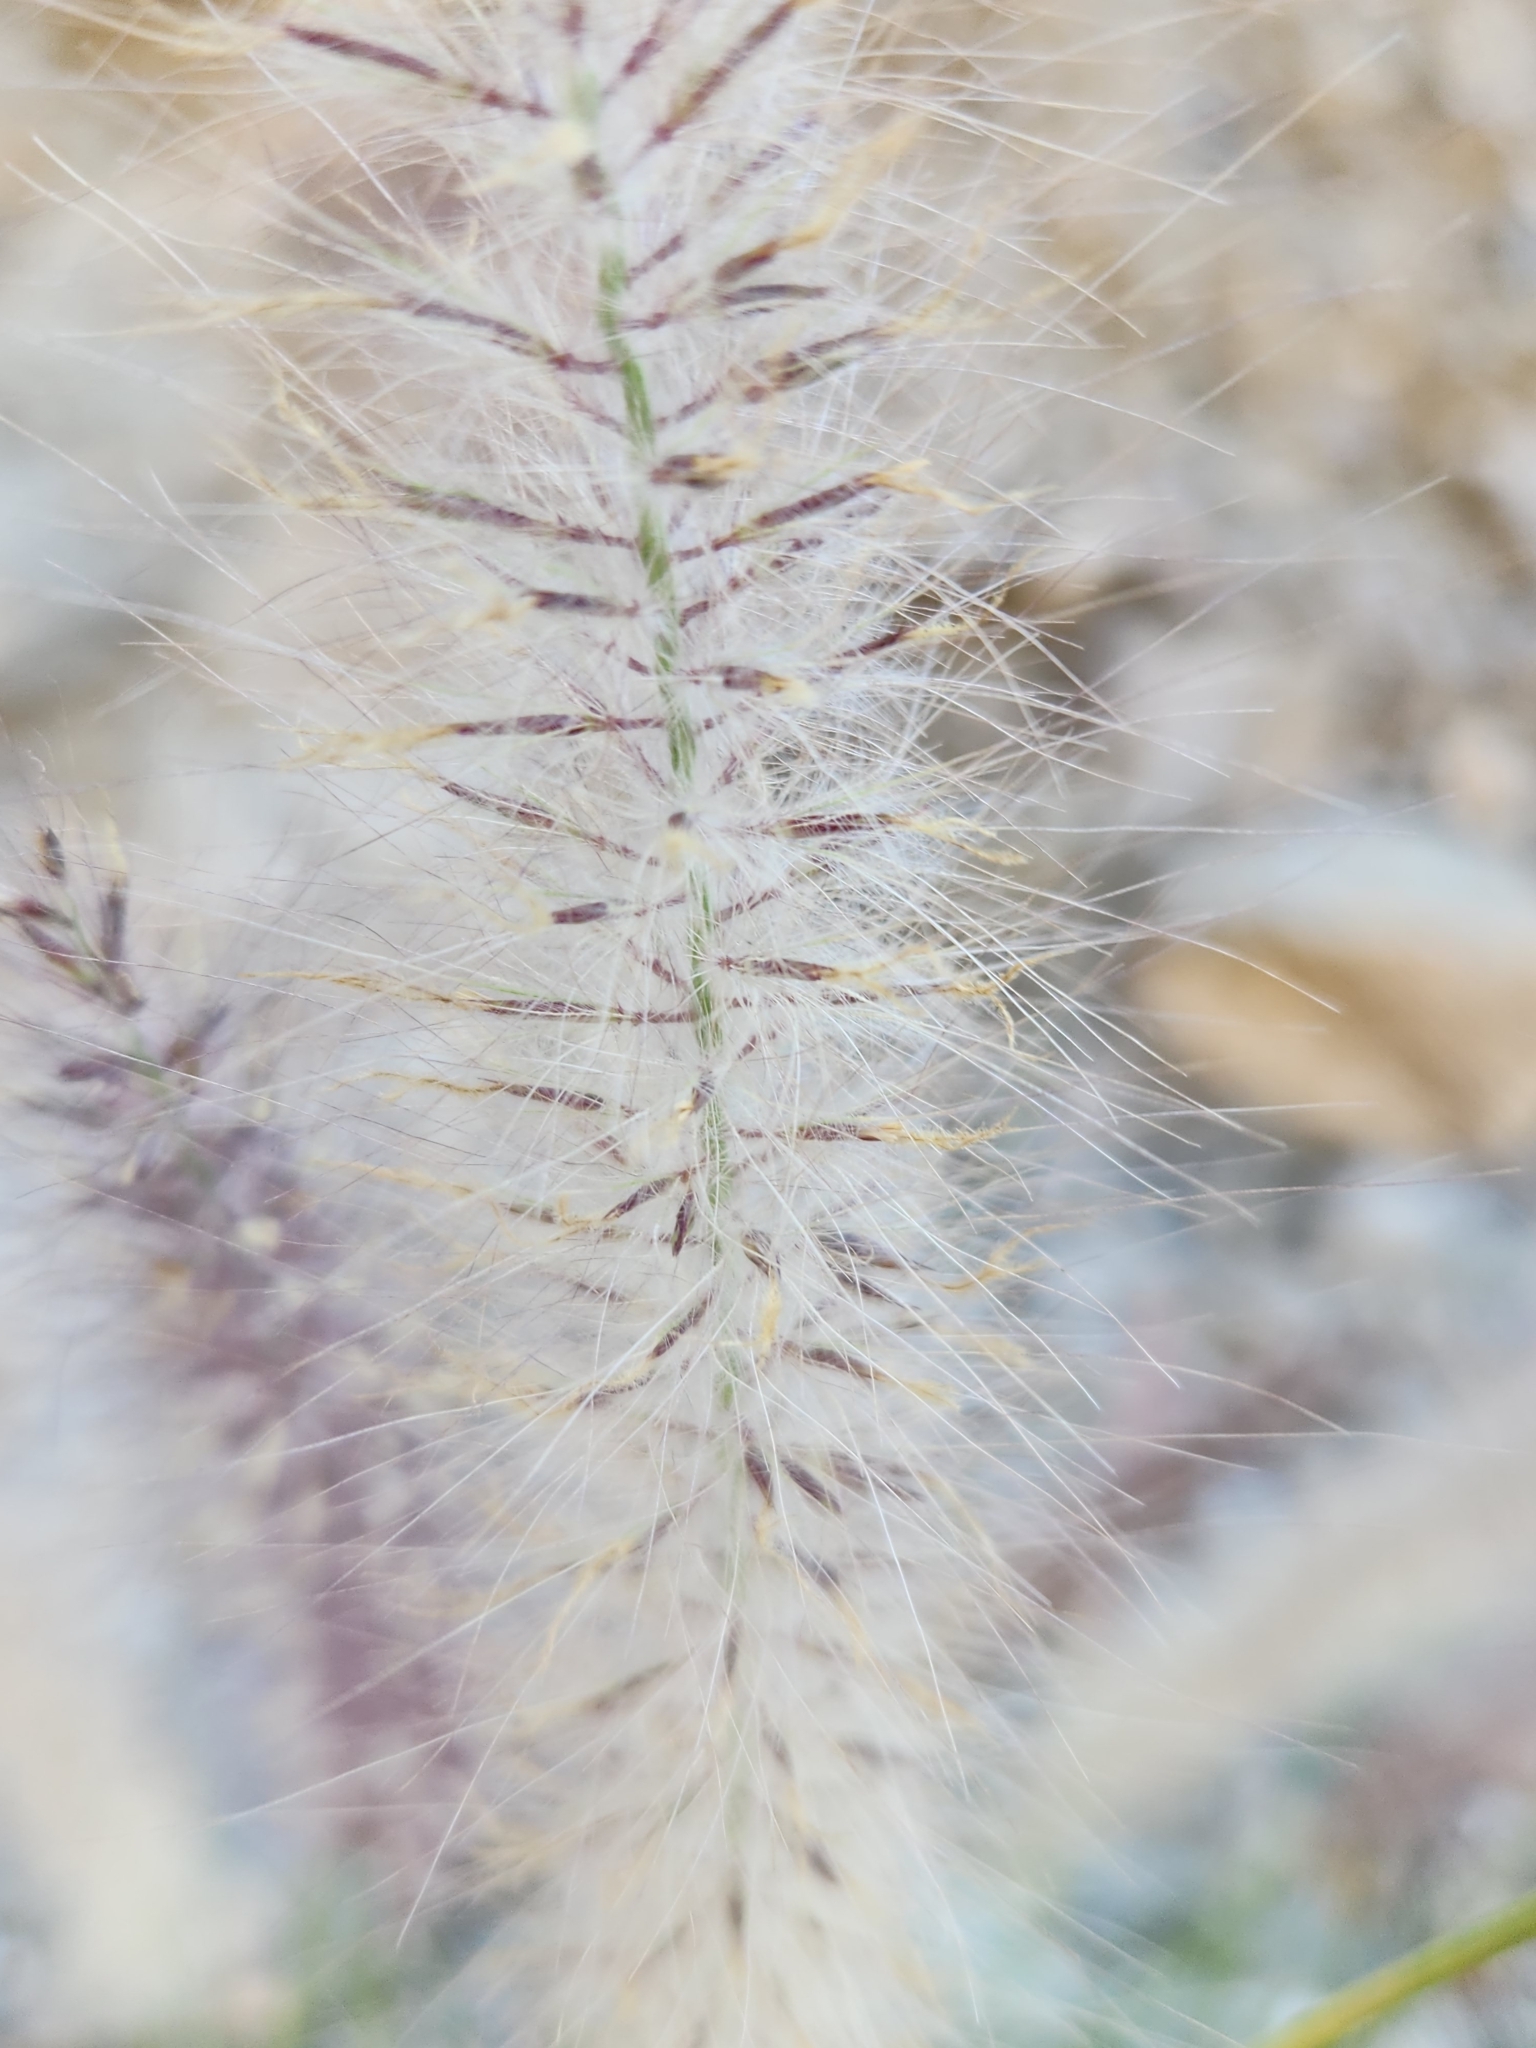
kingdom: Plantae
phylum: Tracheophyta
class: Liliopsida
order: Poales
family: Poaceae
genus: Cenchrus
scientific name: Cenchrus setaceus
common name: Crimson fountaingrass
